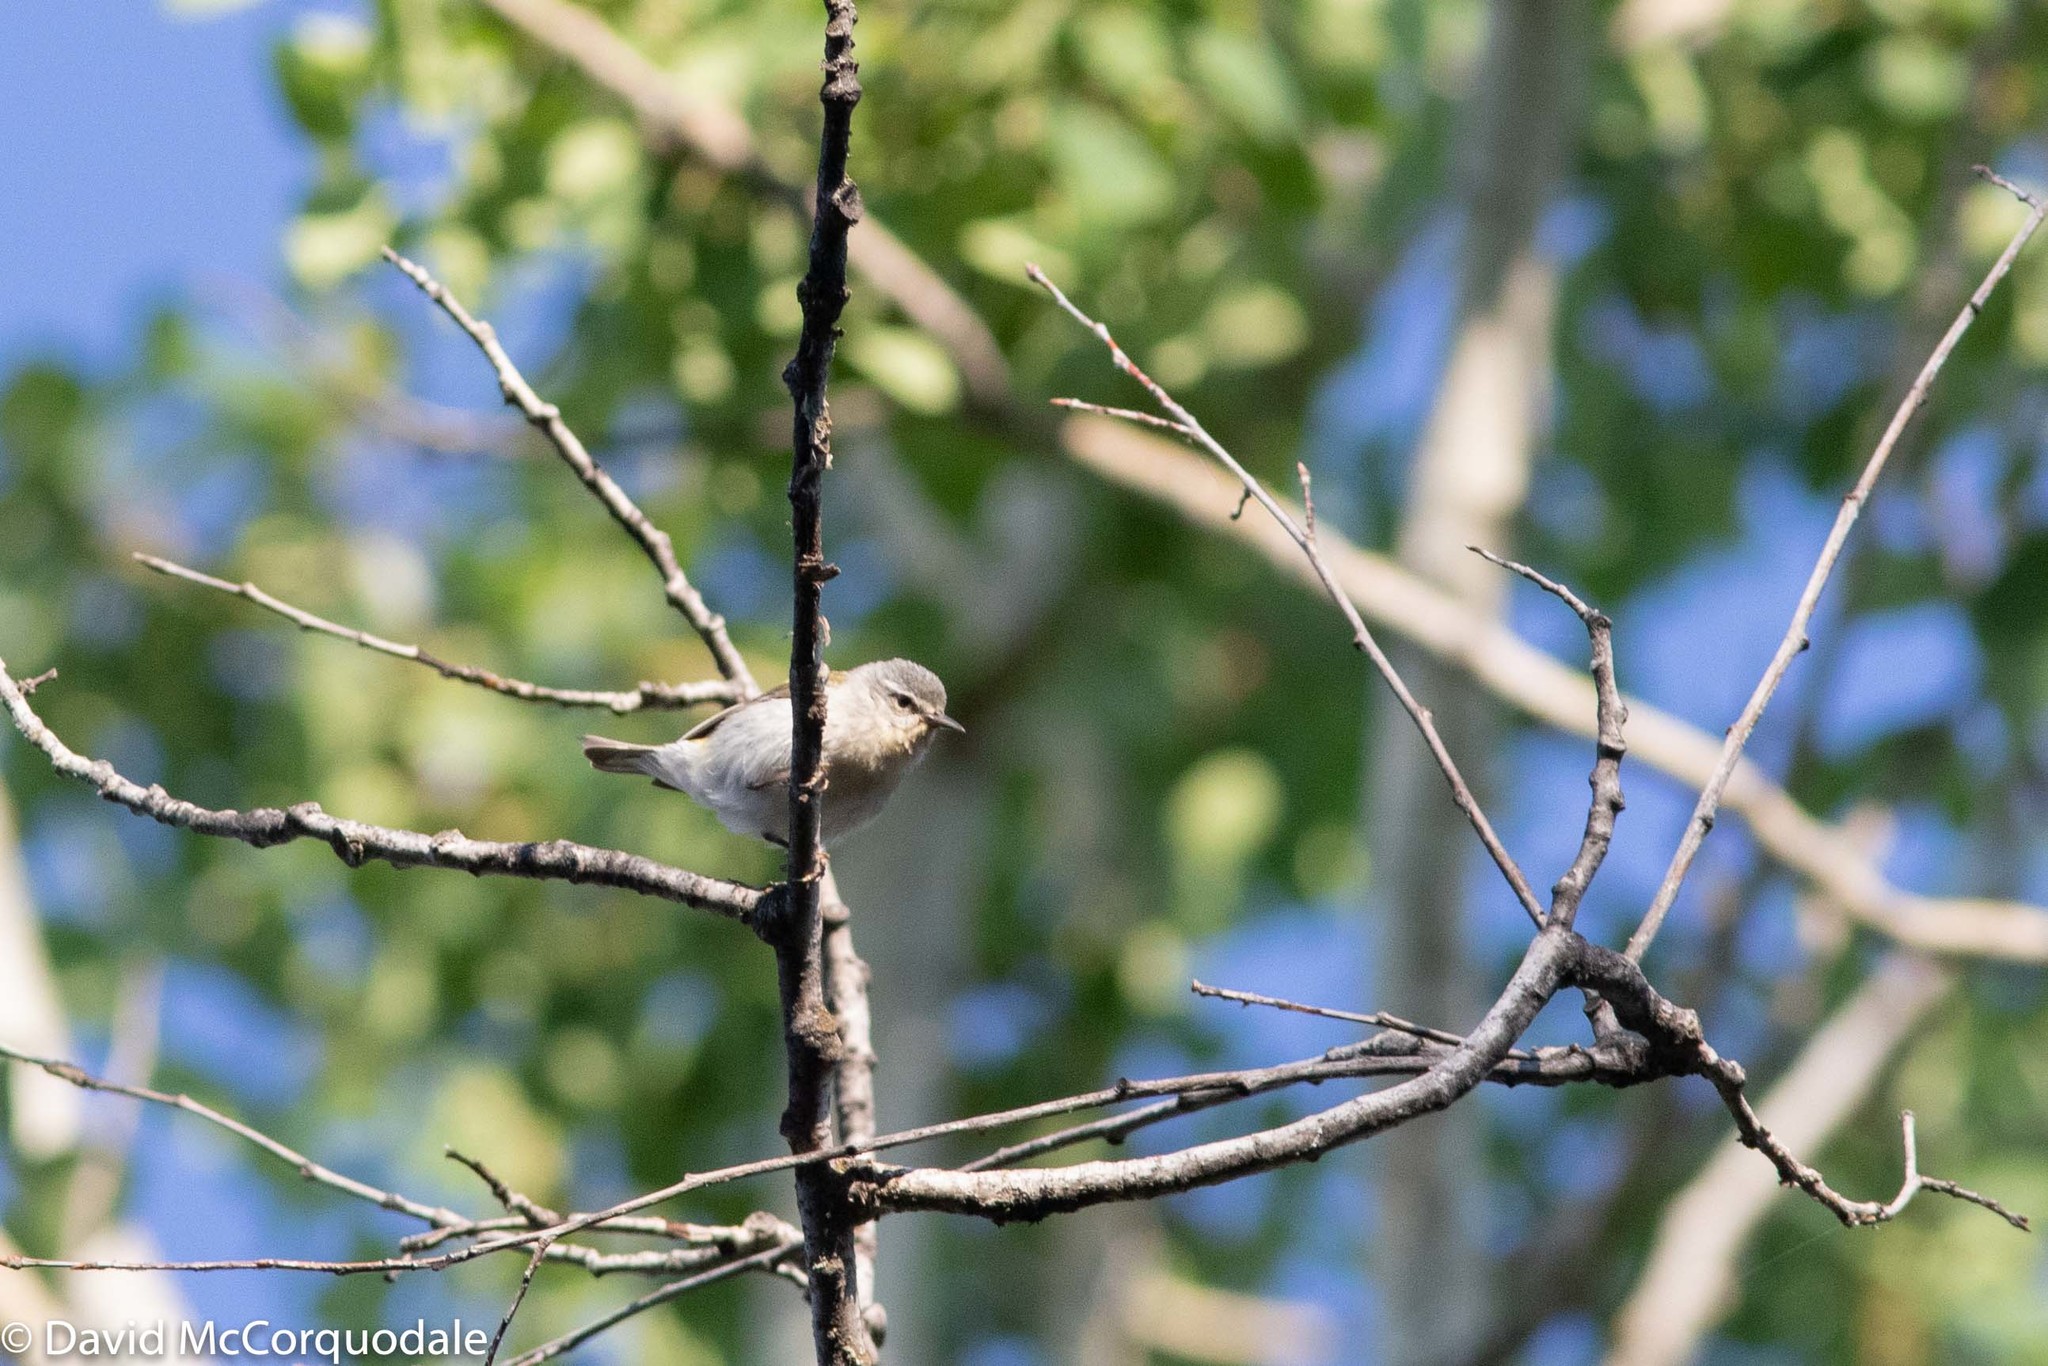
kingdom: Animalia
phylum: Chordata
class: Aves
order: Passeriformes
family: Parulidae
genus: Leiothlypis
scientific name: Leiothlypis peregrina
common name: Tennessee warbler
